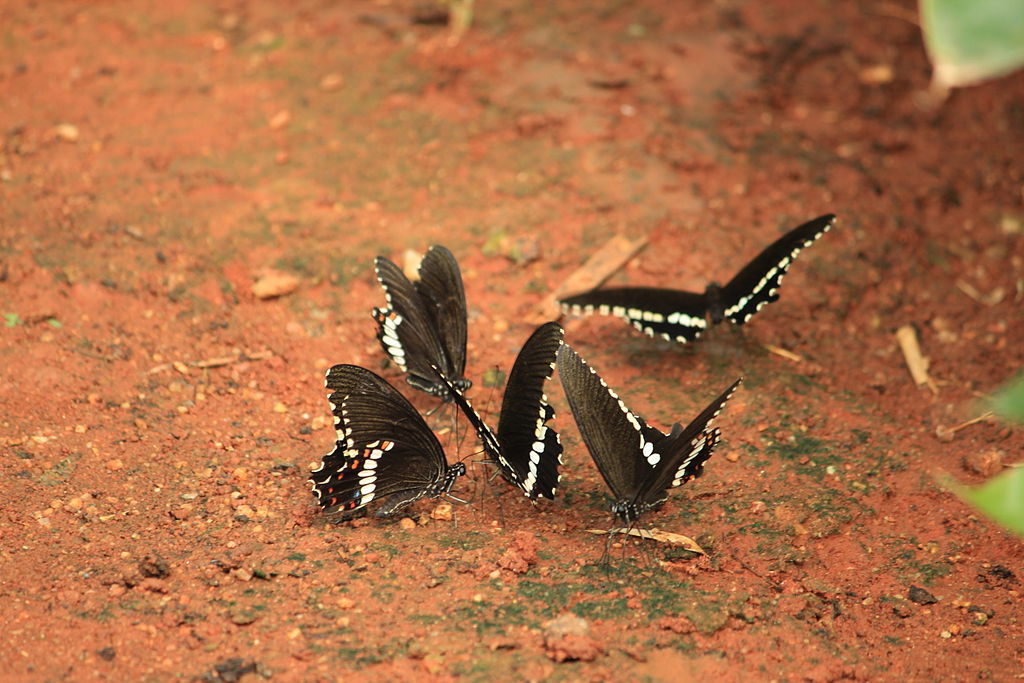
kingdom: Animalia
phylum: Arthropoda
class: Insecta
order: Lepidoptera
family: Papilionidae
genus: Papilio
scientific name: Papilio polytes
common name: Common mormon
